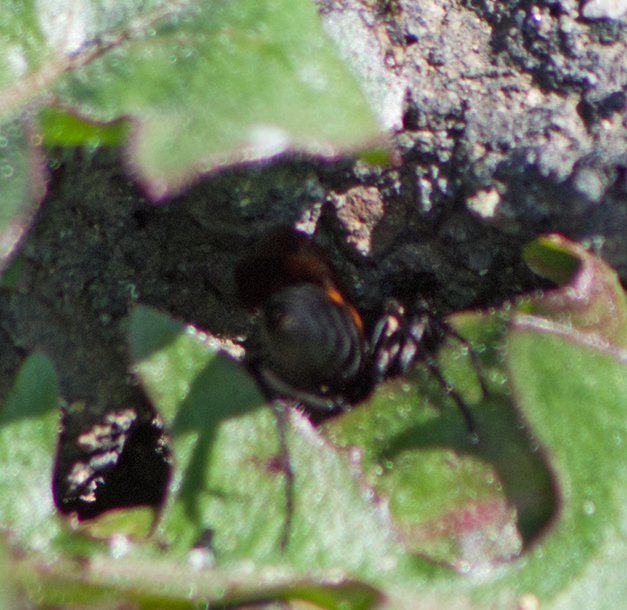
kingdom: Animalia
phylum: Arthropoda
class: Insecta
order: Hymenoptera
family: Pompilidae
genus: Anoplius
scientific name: Anoplius viaticus
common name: Black banded spider wasp
